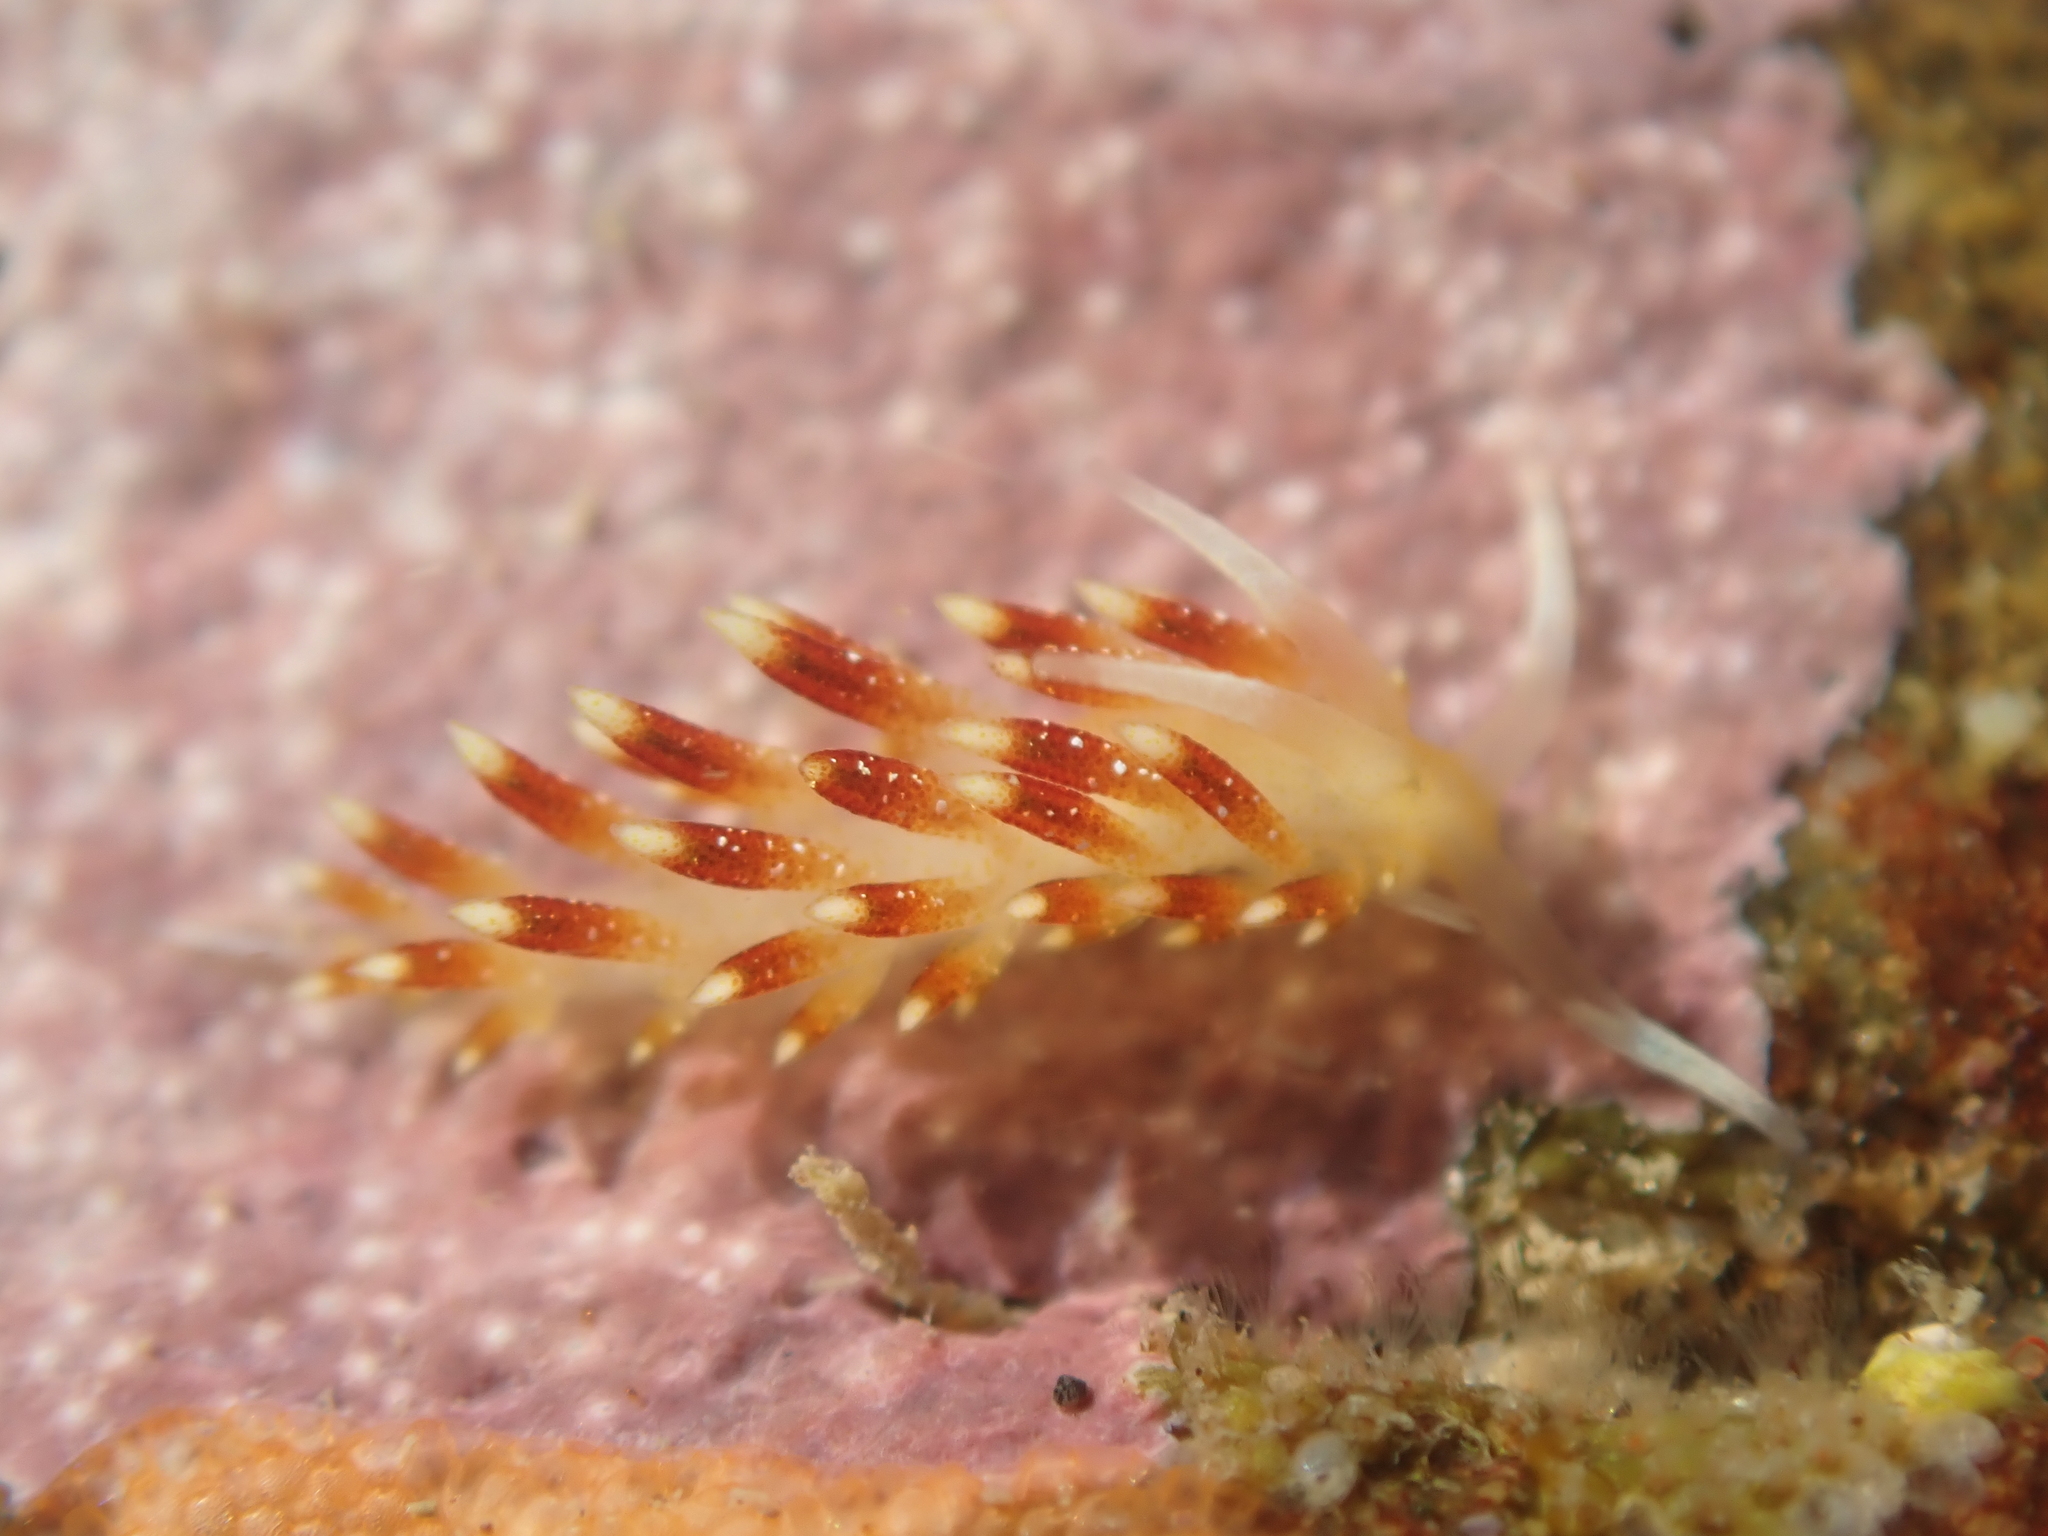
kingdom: Animalia
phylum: Mollusca
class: Gastropoda
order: Nudibranchia
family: Apataidae
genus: Tularia
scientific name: Tularia bractea
